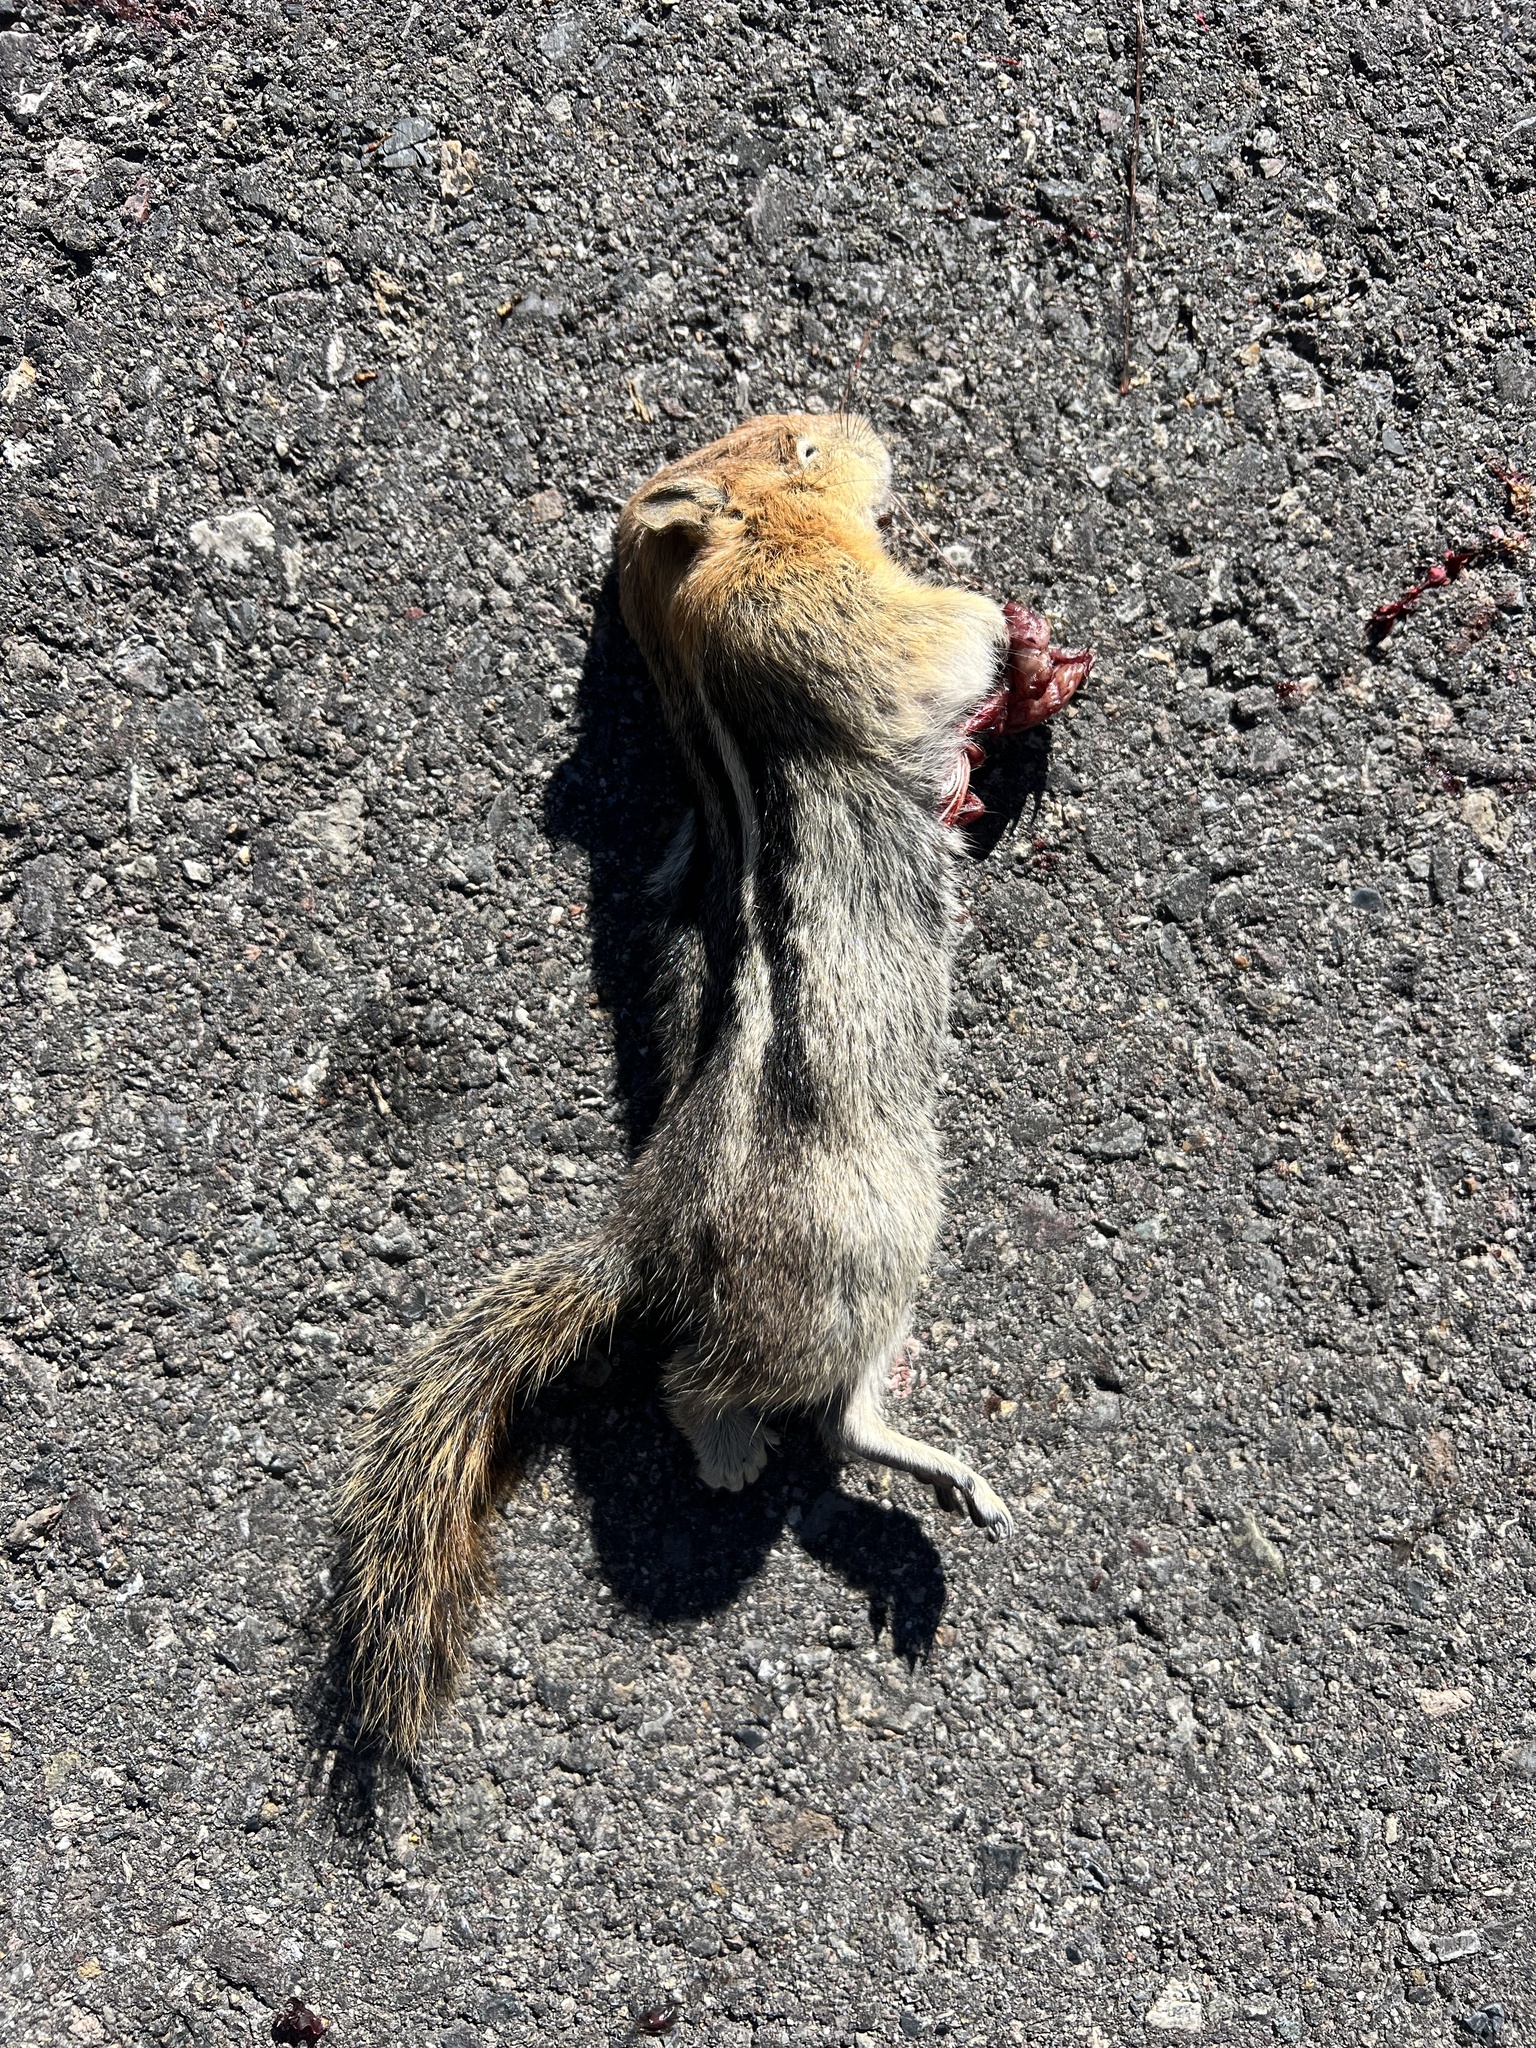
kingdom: Animalia
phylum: Chordata
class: Mammalia
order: Rodentia
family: Sciuridae
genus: Callospermophilus
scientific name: Callospermophilus lateralis
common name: Golden-mantled ground squirrel
